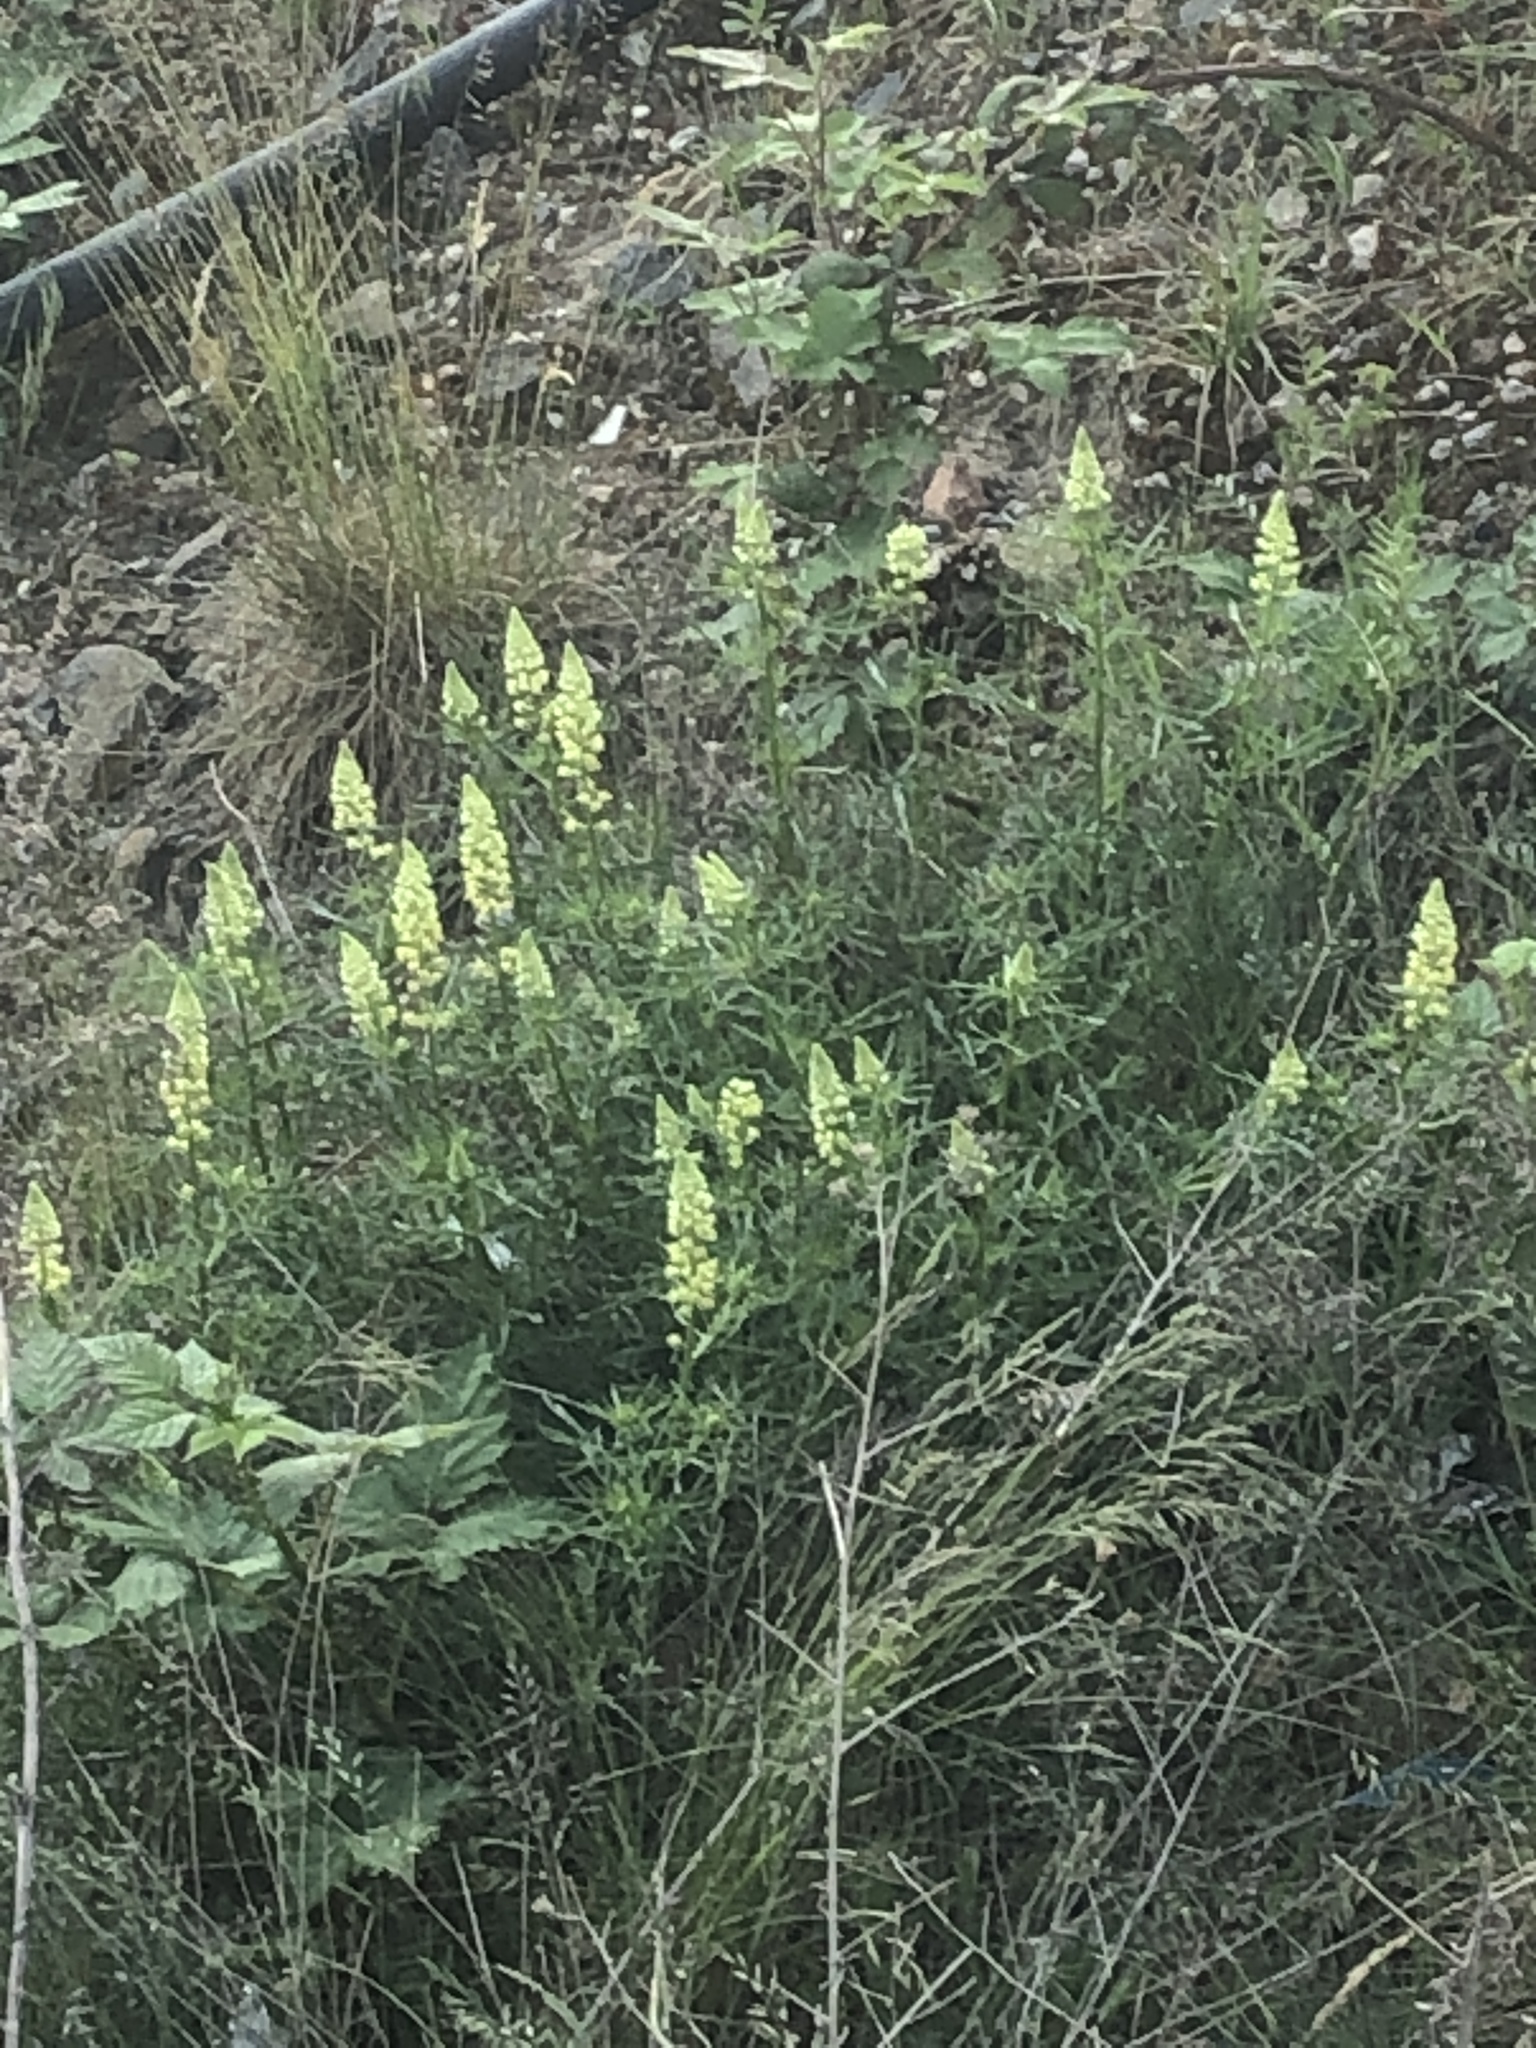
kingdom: Plantae
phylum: Tracheophyta
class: Magnoliopsida
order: Brassicales
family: Resedaceae
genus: Reseda
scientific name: Reseda lutea
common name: Wild mignonette
